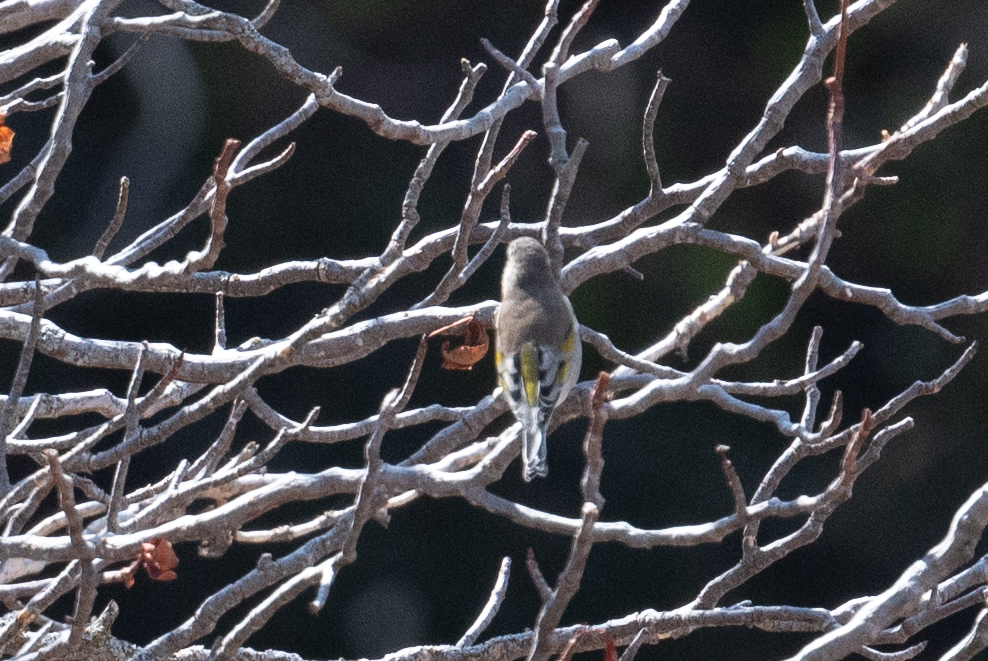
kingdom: Animalia
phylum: Chordata
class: Aves
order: Passeriformes
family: Fringillidae
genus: Spinus
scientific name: Spinus lawrencei
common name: Lawrence's goldfinch
